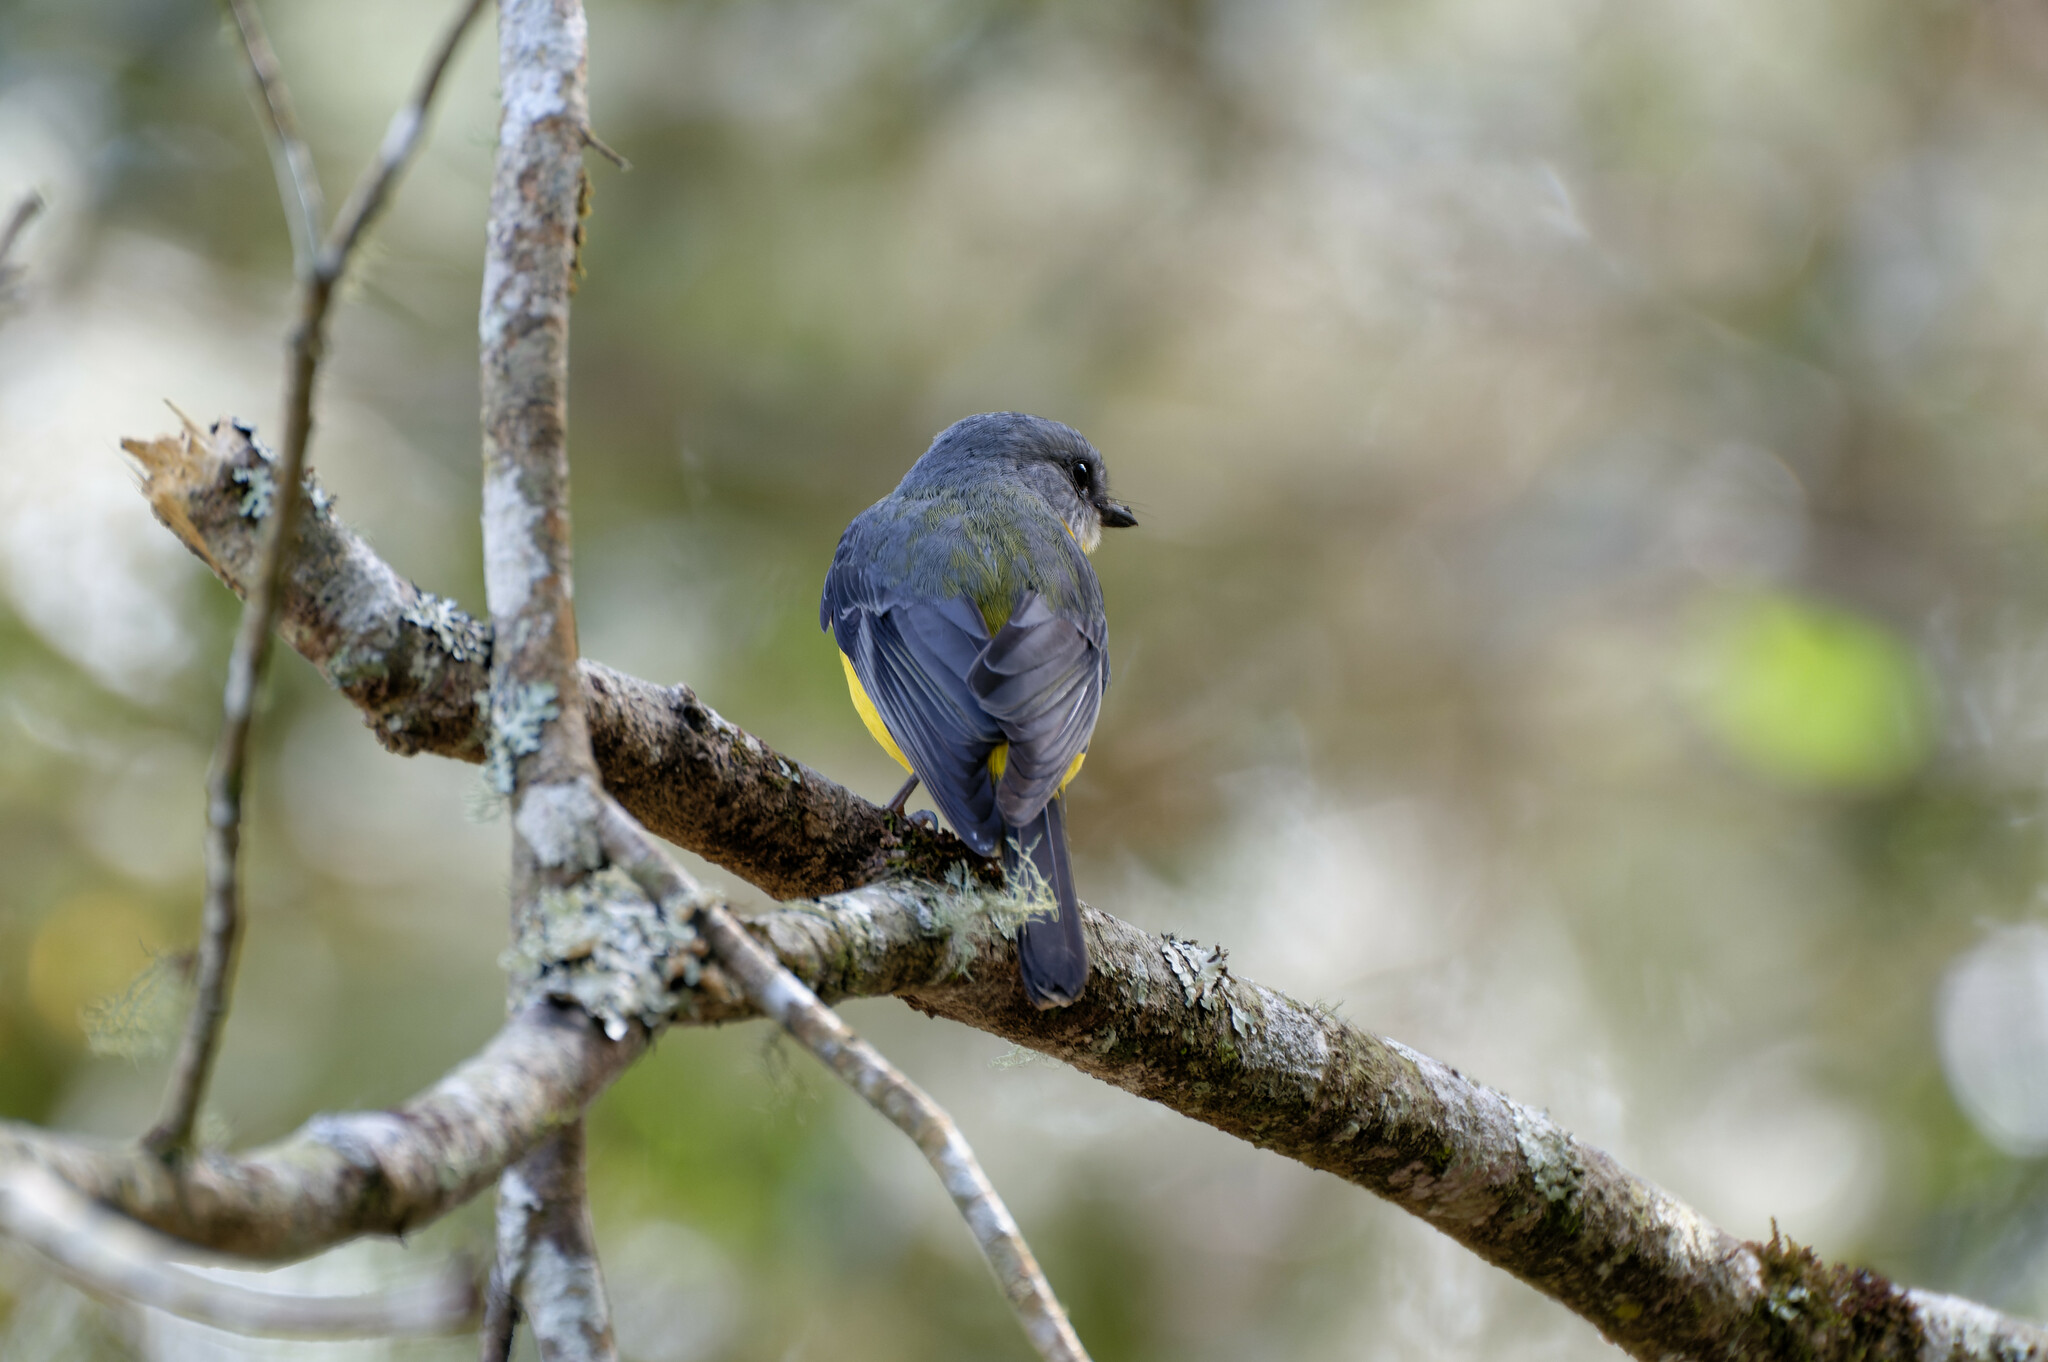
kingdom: Animalia
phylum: Chordata
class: Aves
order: Passeriformes
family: Petroicidae
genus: Eopsaltria
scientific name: Eopsaltria australis
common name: Eastern yellow robin
